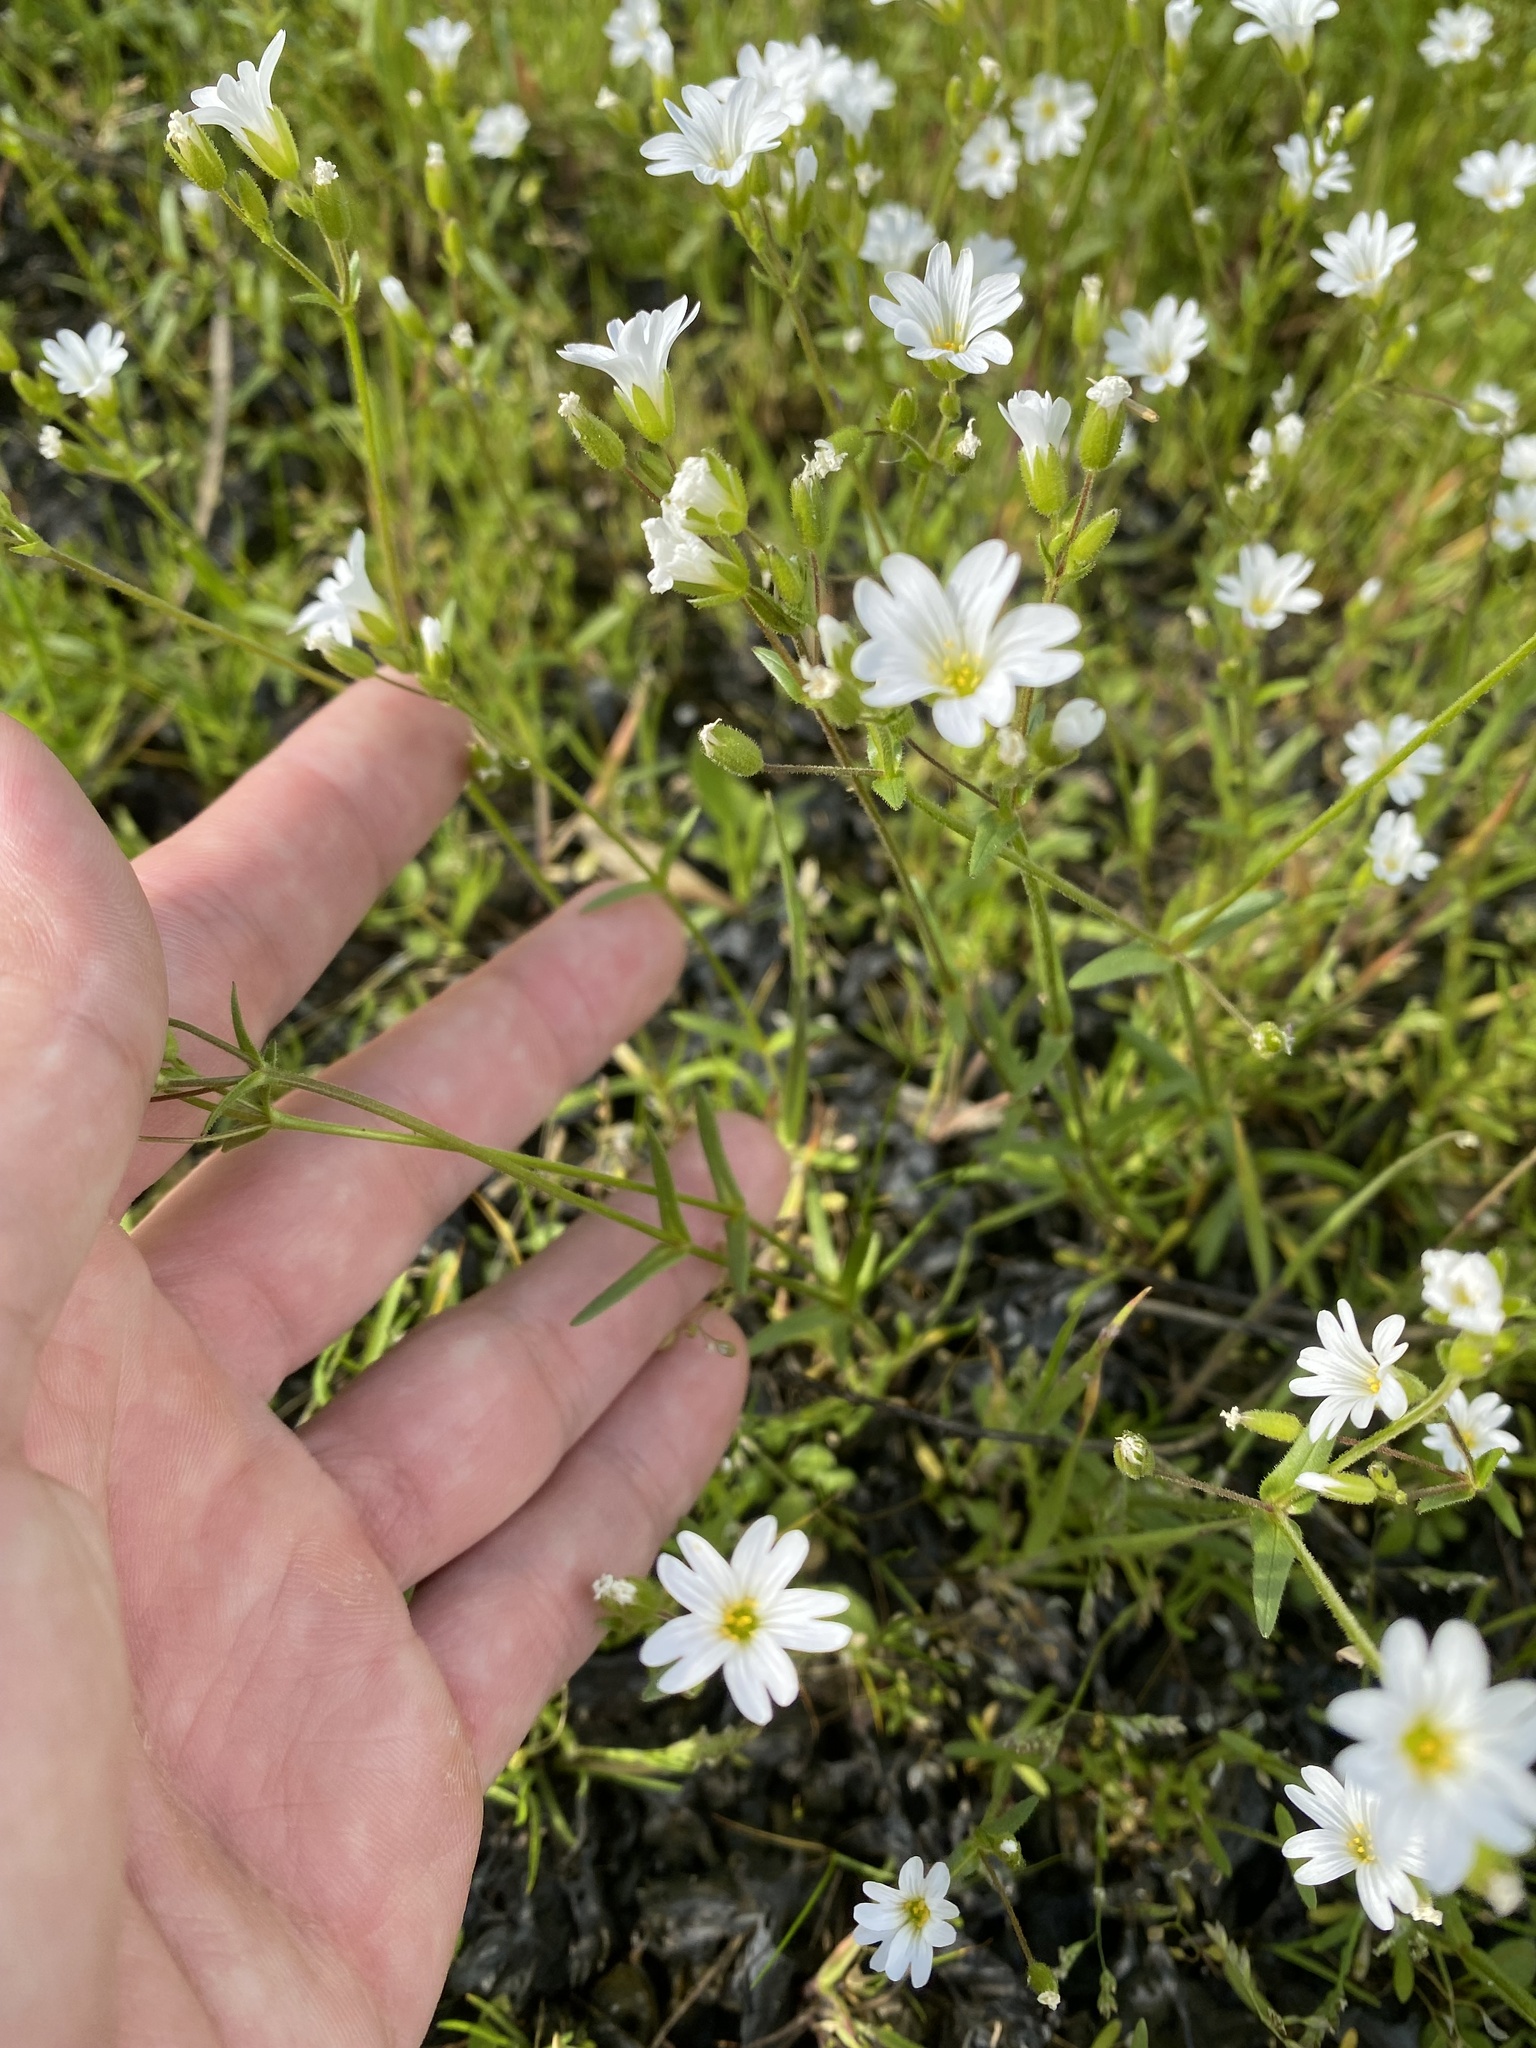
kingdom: Plantae
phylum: Tracheophyta
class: Magnoliopsida
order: Caryophyllales
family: Caryophyllaceae
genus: Dichodon
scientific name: Dichodon viscidum
